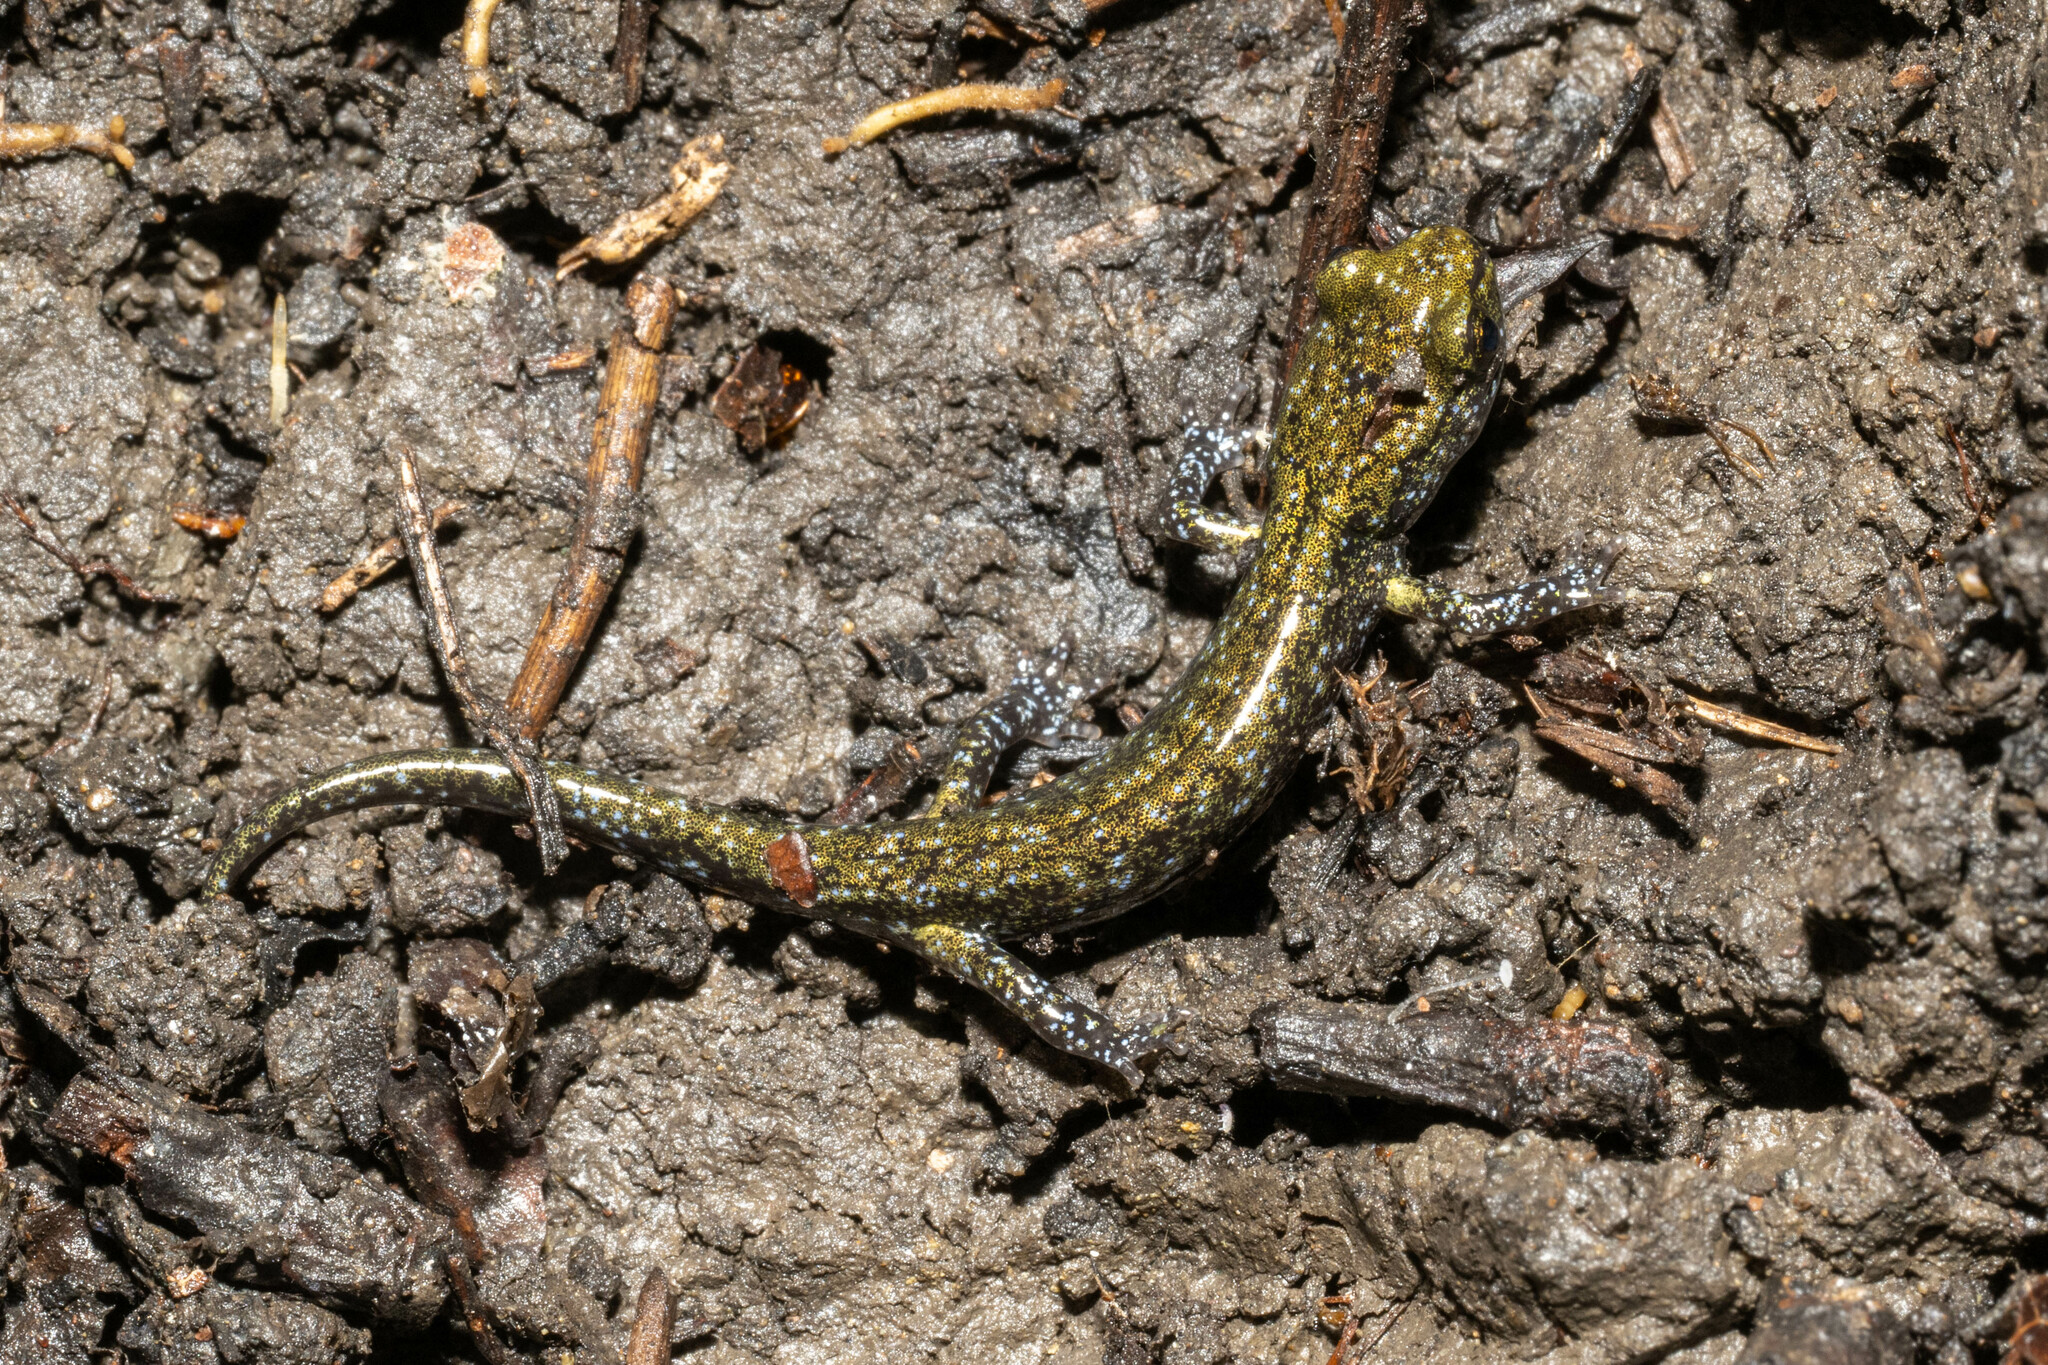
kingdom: Animalia
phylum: Chordata
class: Amphibia
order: Caudata
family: Plethodontidae
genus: Aneides
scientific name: Aneides flavipunctatus
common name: Black salamander
